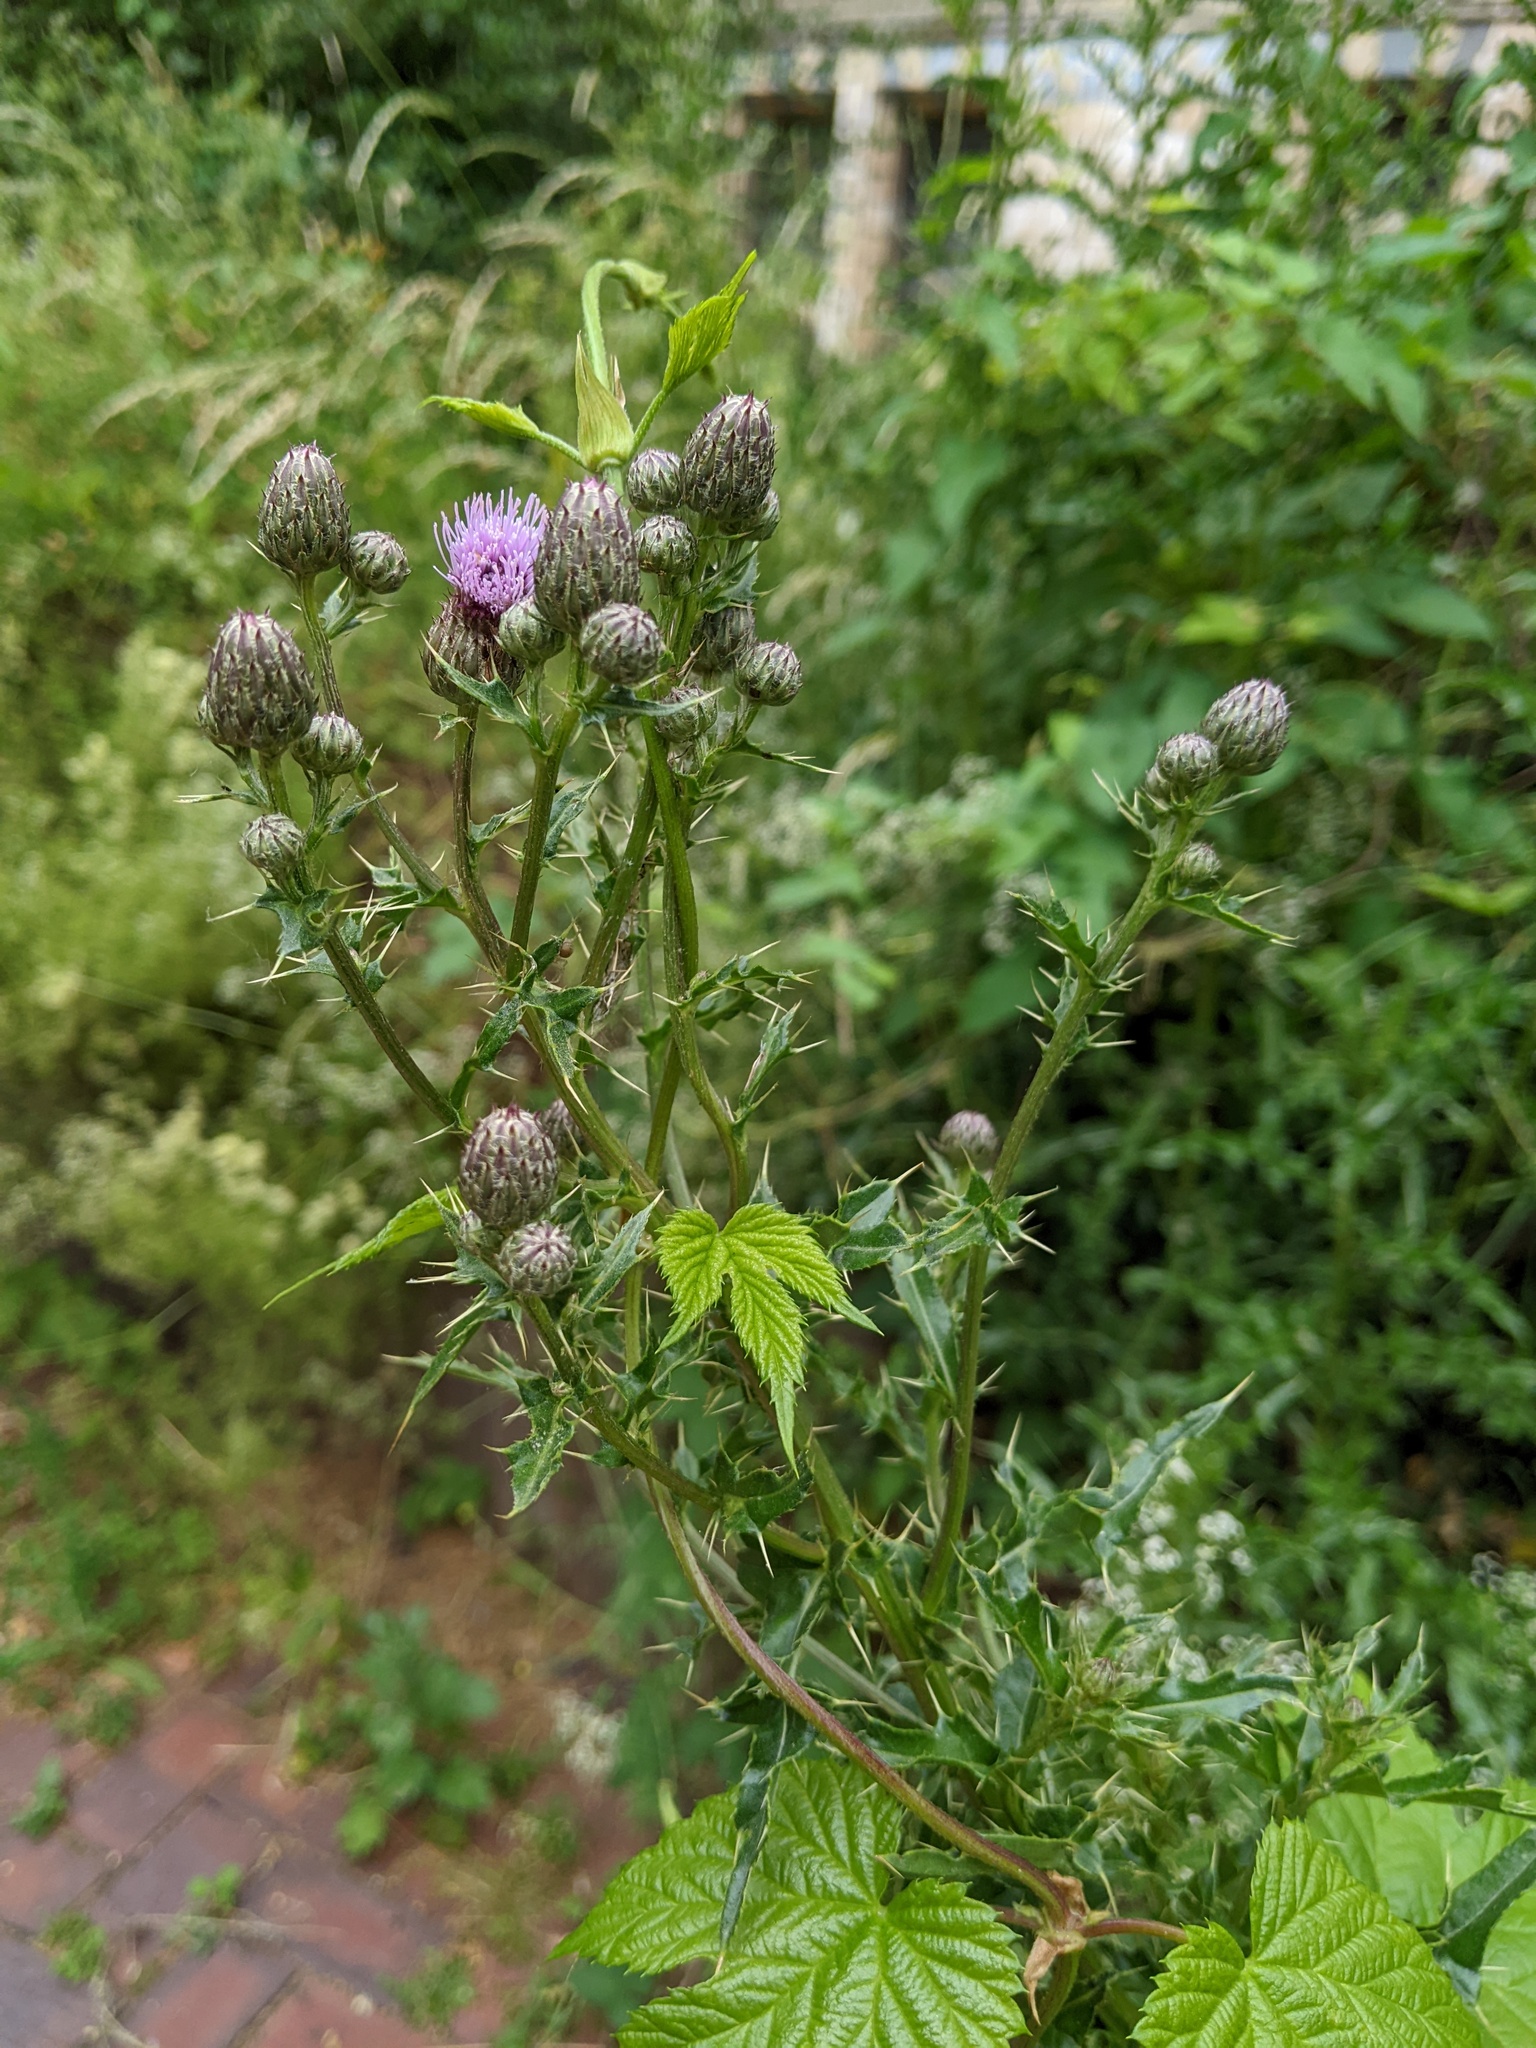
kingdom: Plantae
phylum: Tracheophyta
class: Magnoliopsida
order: Asterales
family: Asteraceae
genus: Cirsium
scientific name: Cirsium arvense
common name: Creeping thistle
